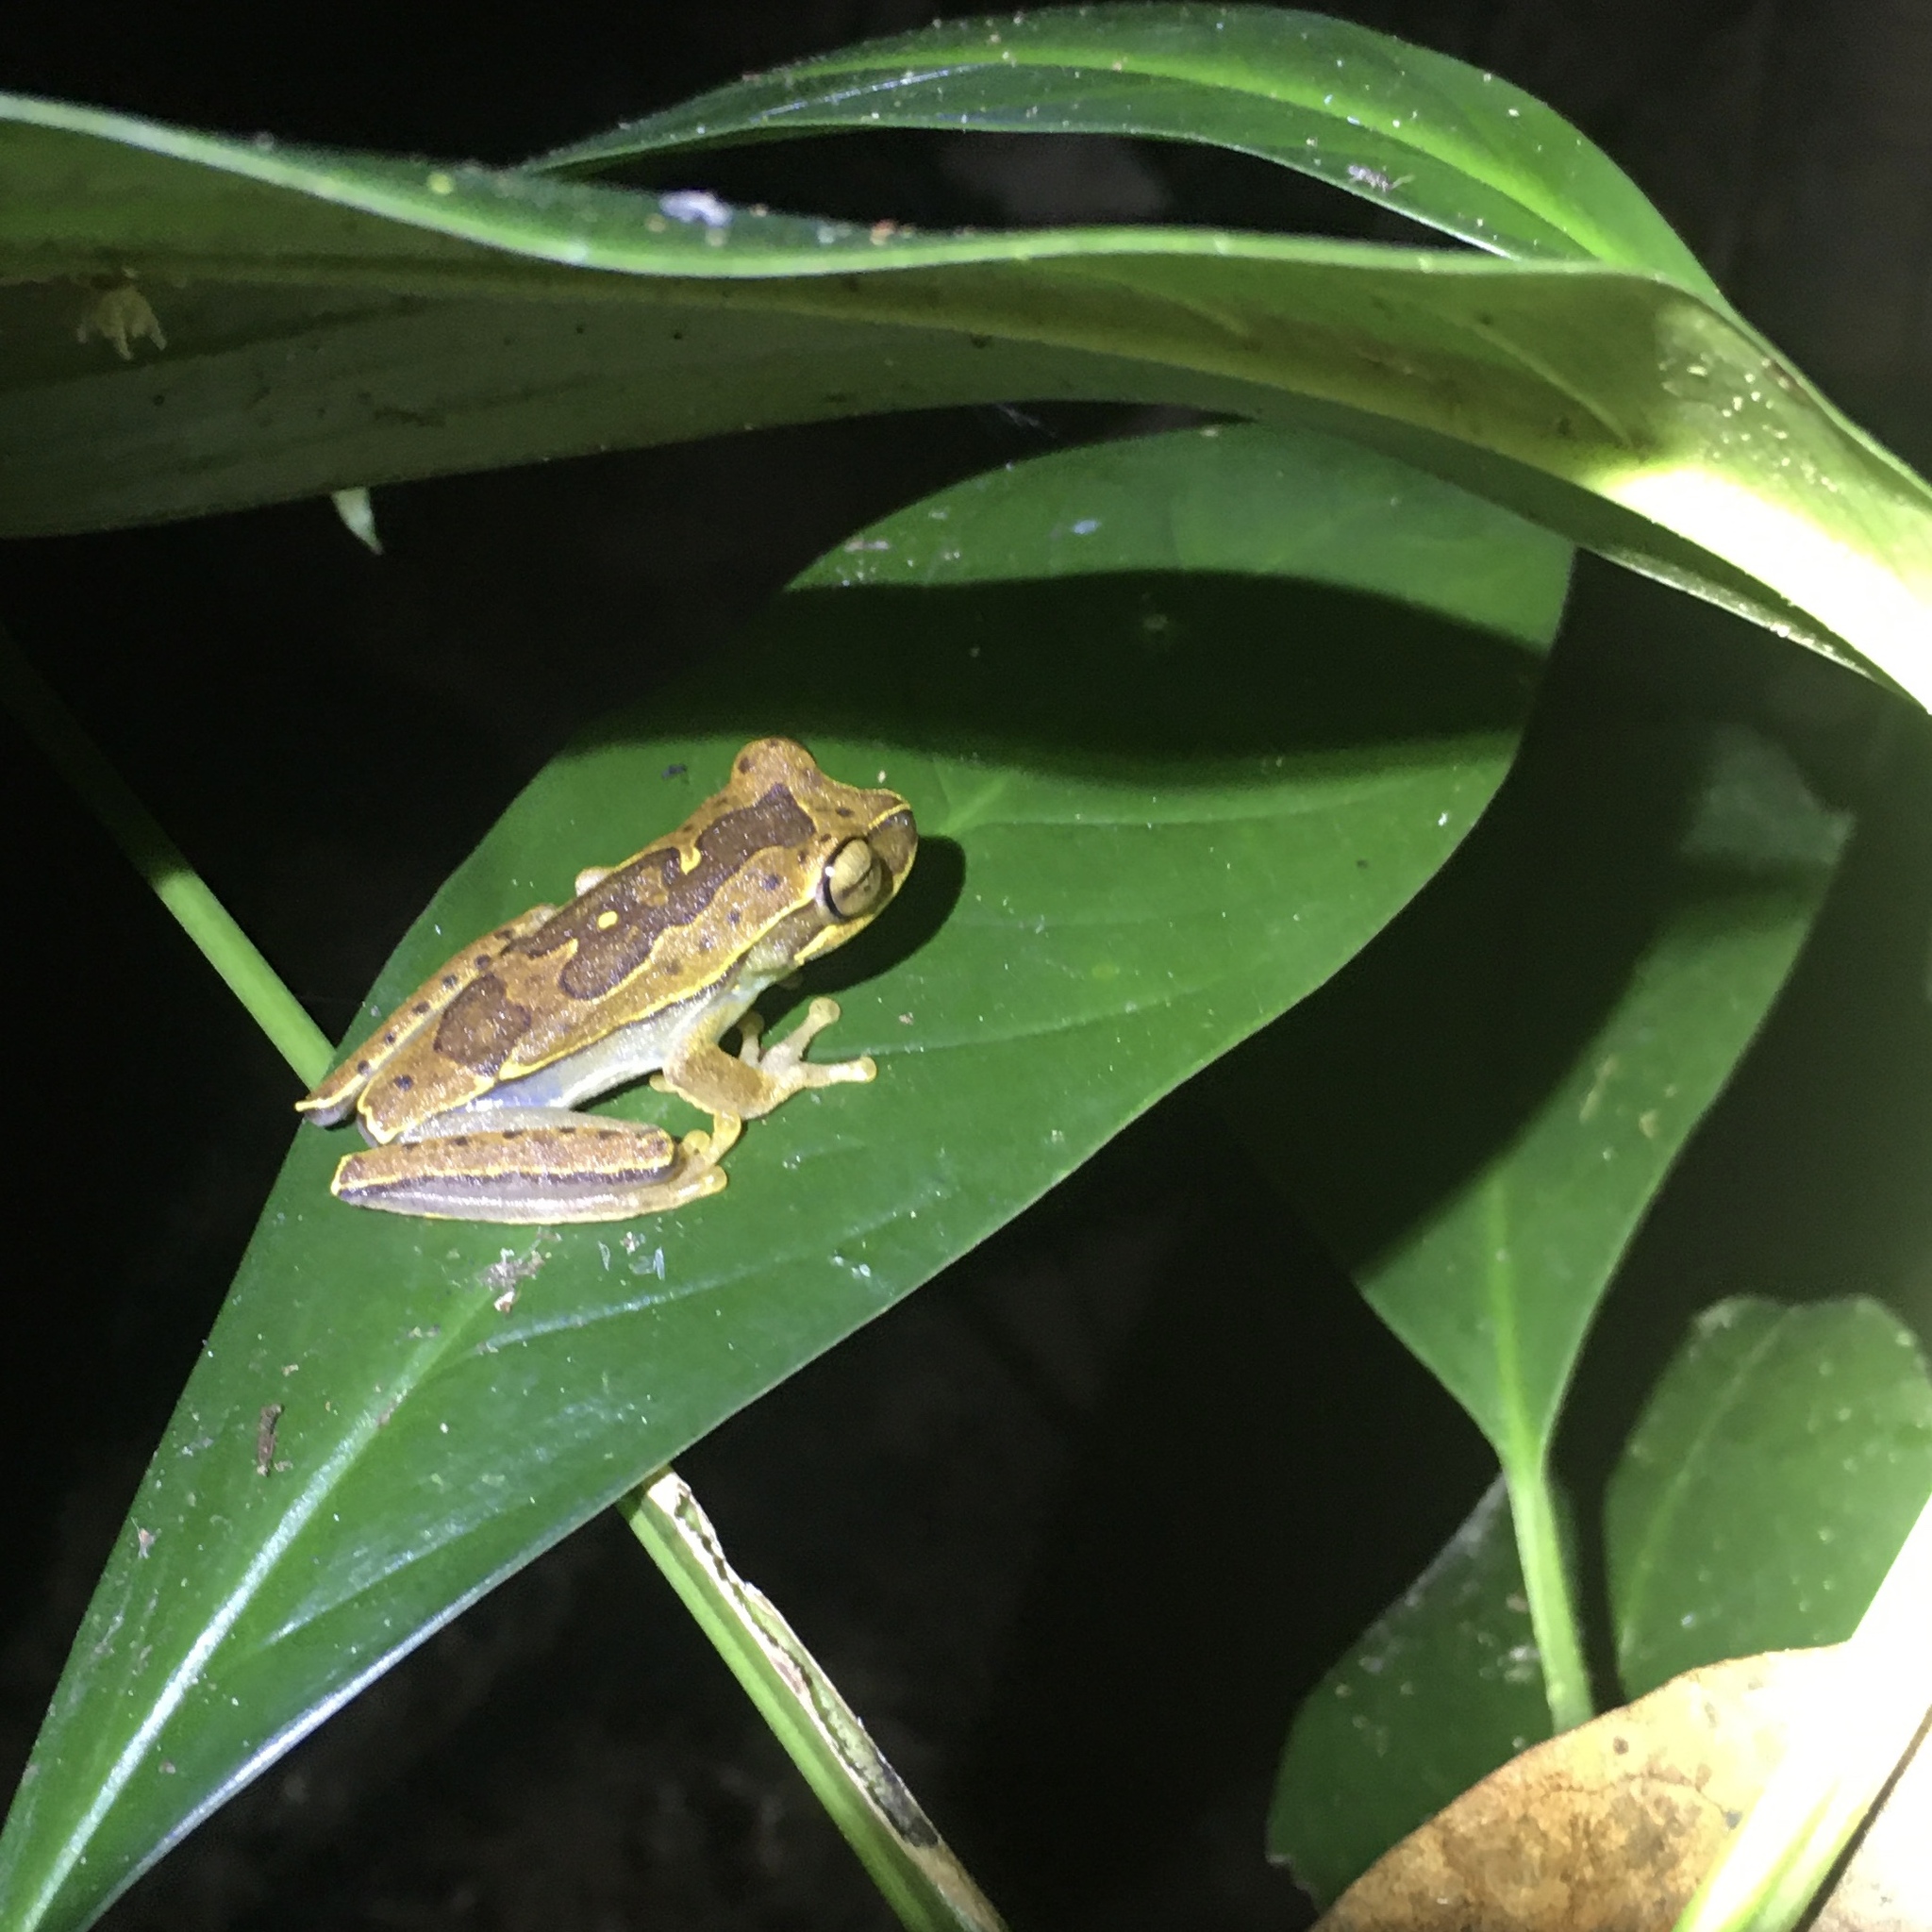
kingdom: Animalia
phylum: Chordata
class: Amphibia
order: Anura
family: Hylidae
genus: Boana
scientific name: Boana freicanecae
